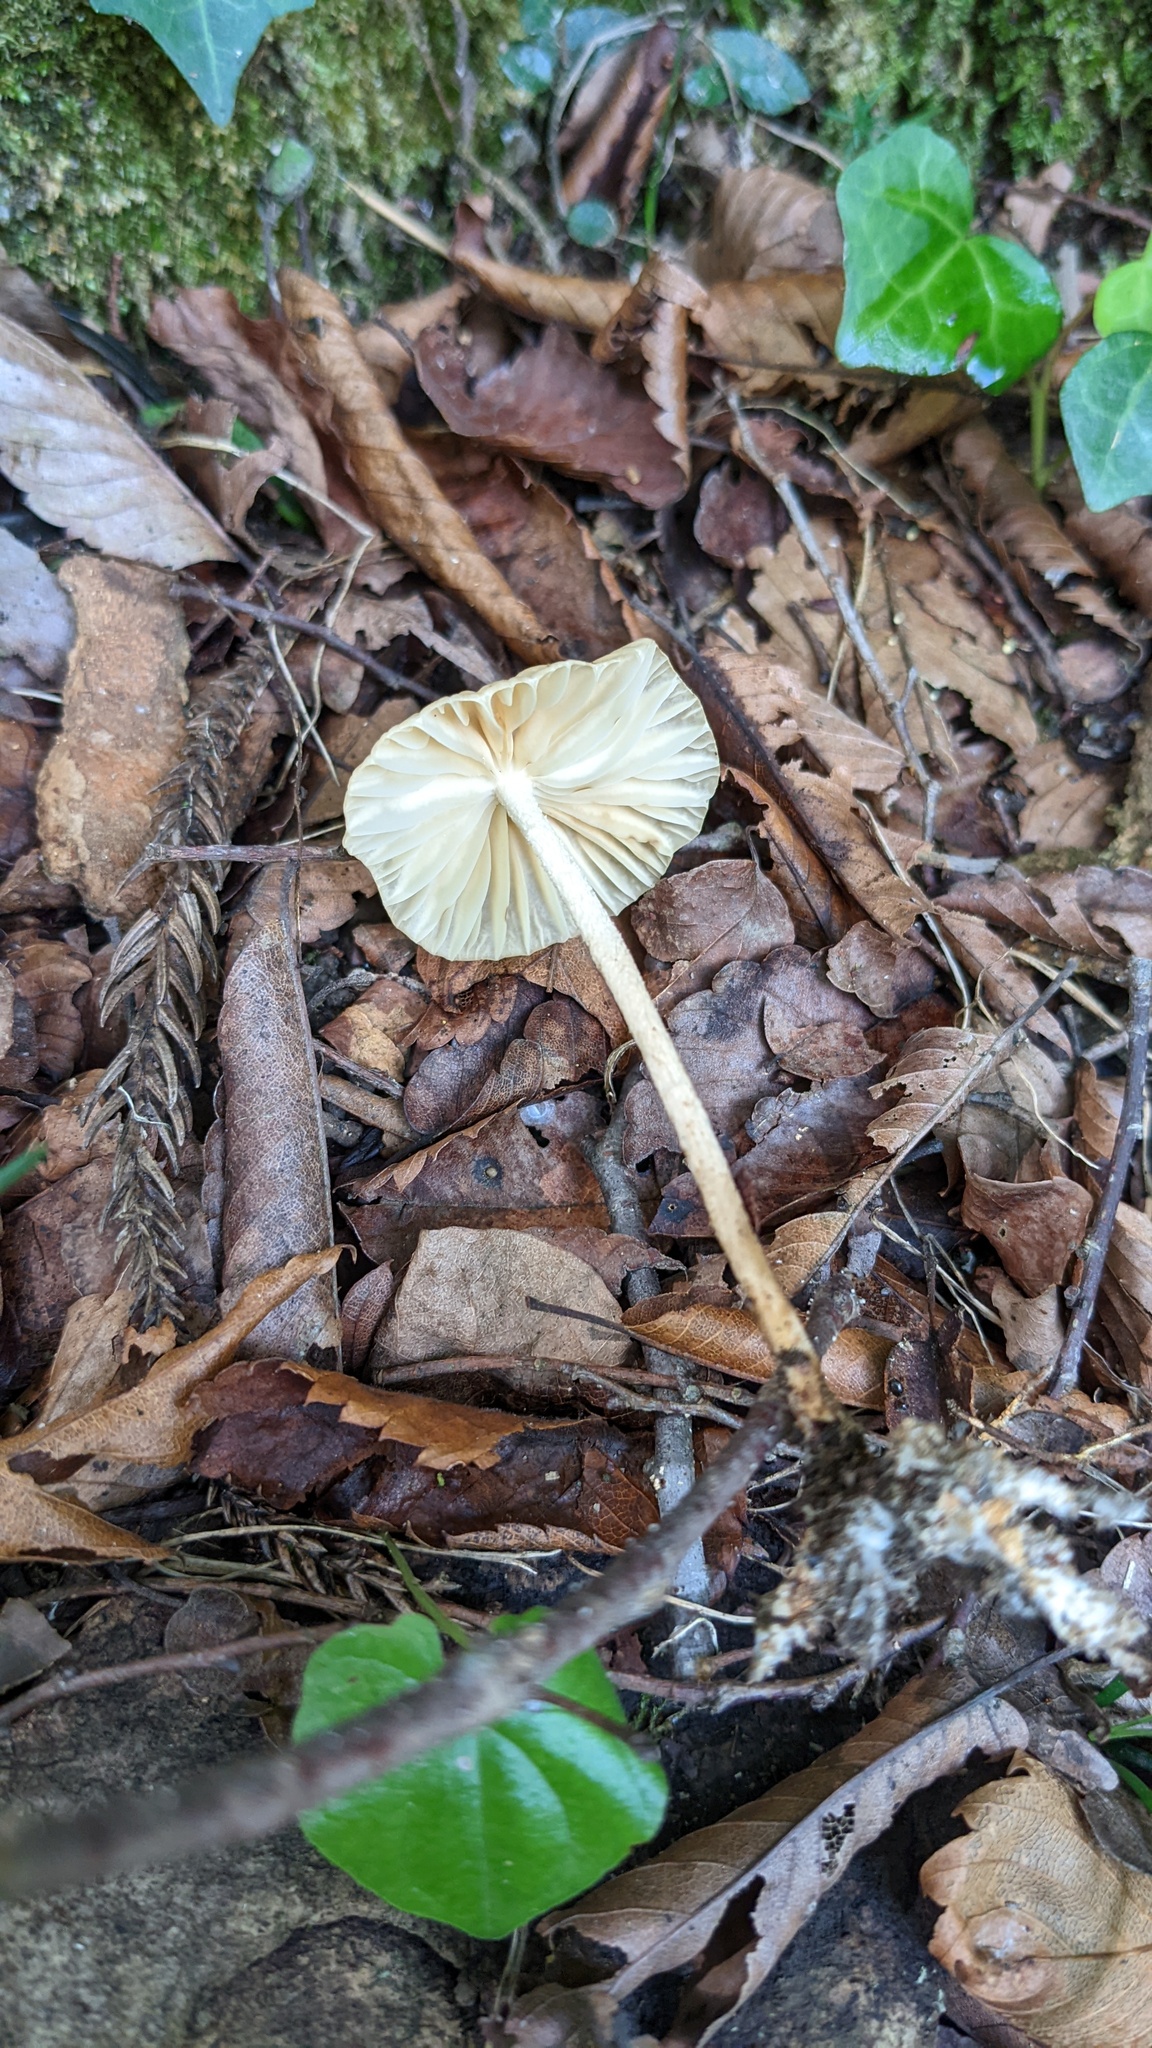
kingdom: Fungi
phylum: Basidiomycota
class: Agaricomycetes
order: Agaricales
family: Marasmiaceae
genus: Marasmius
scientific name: Marasmius maximus
